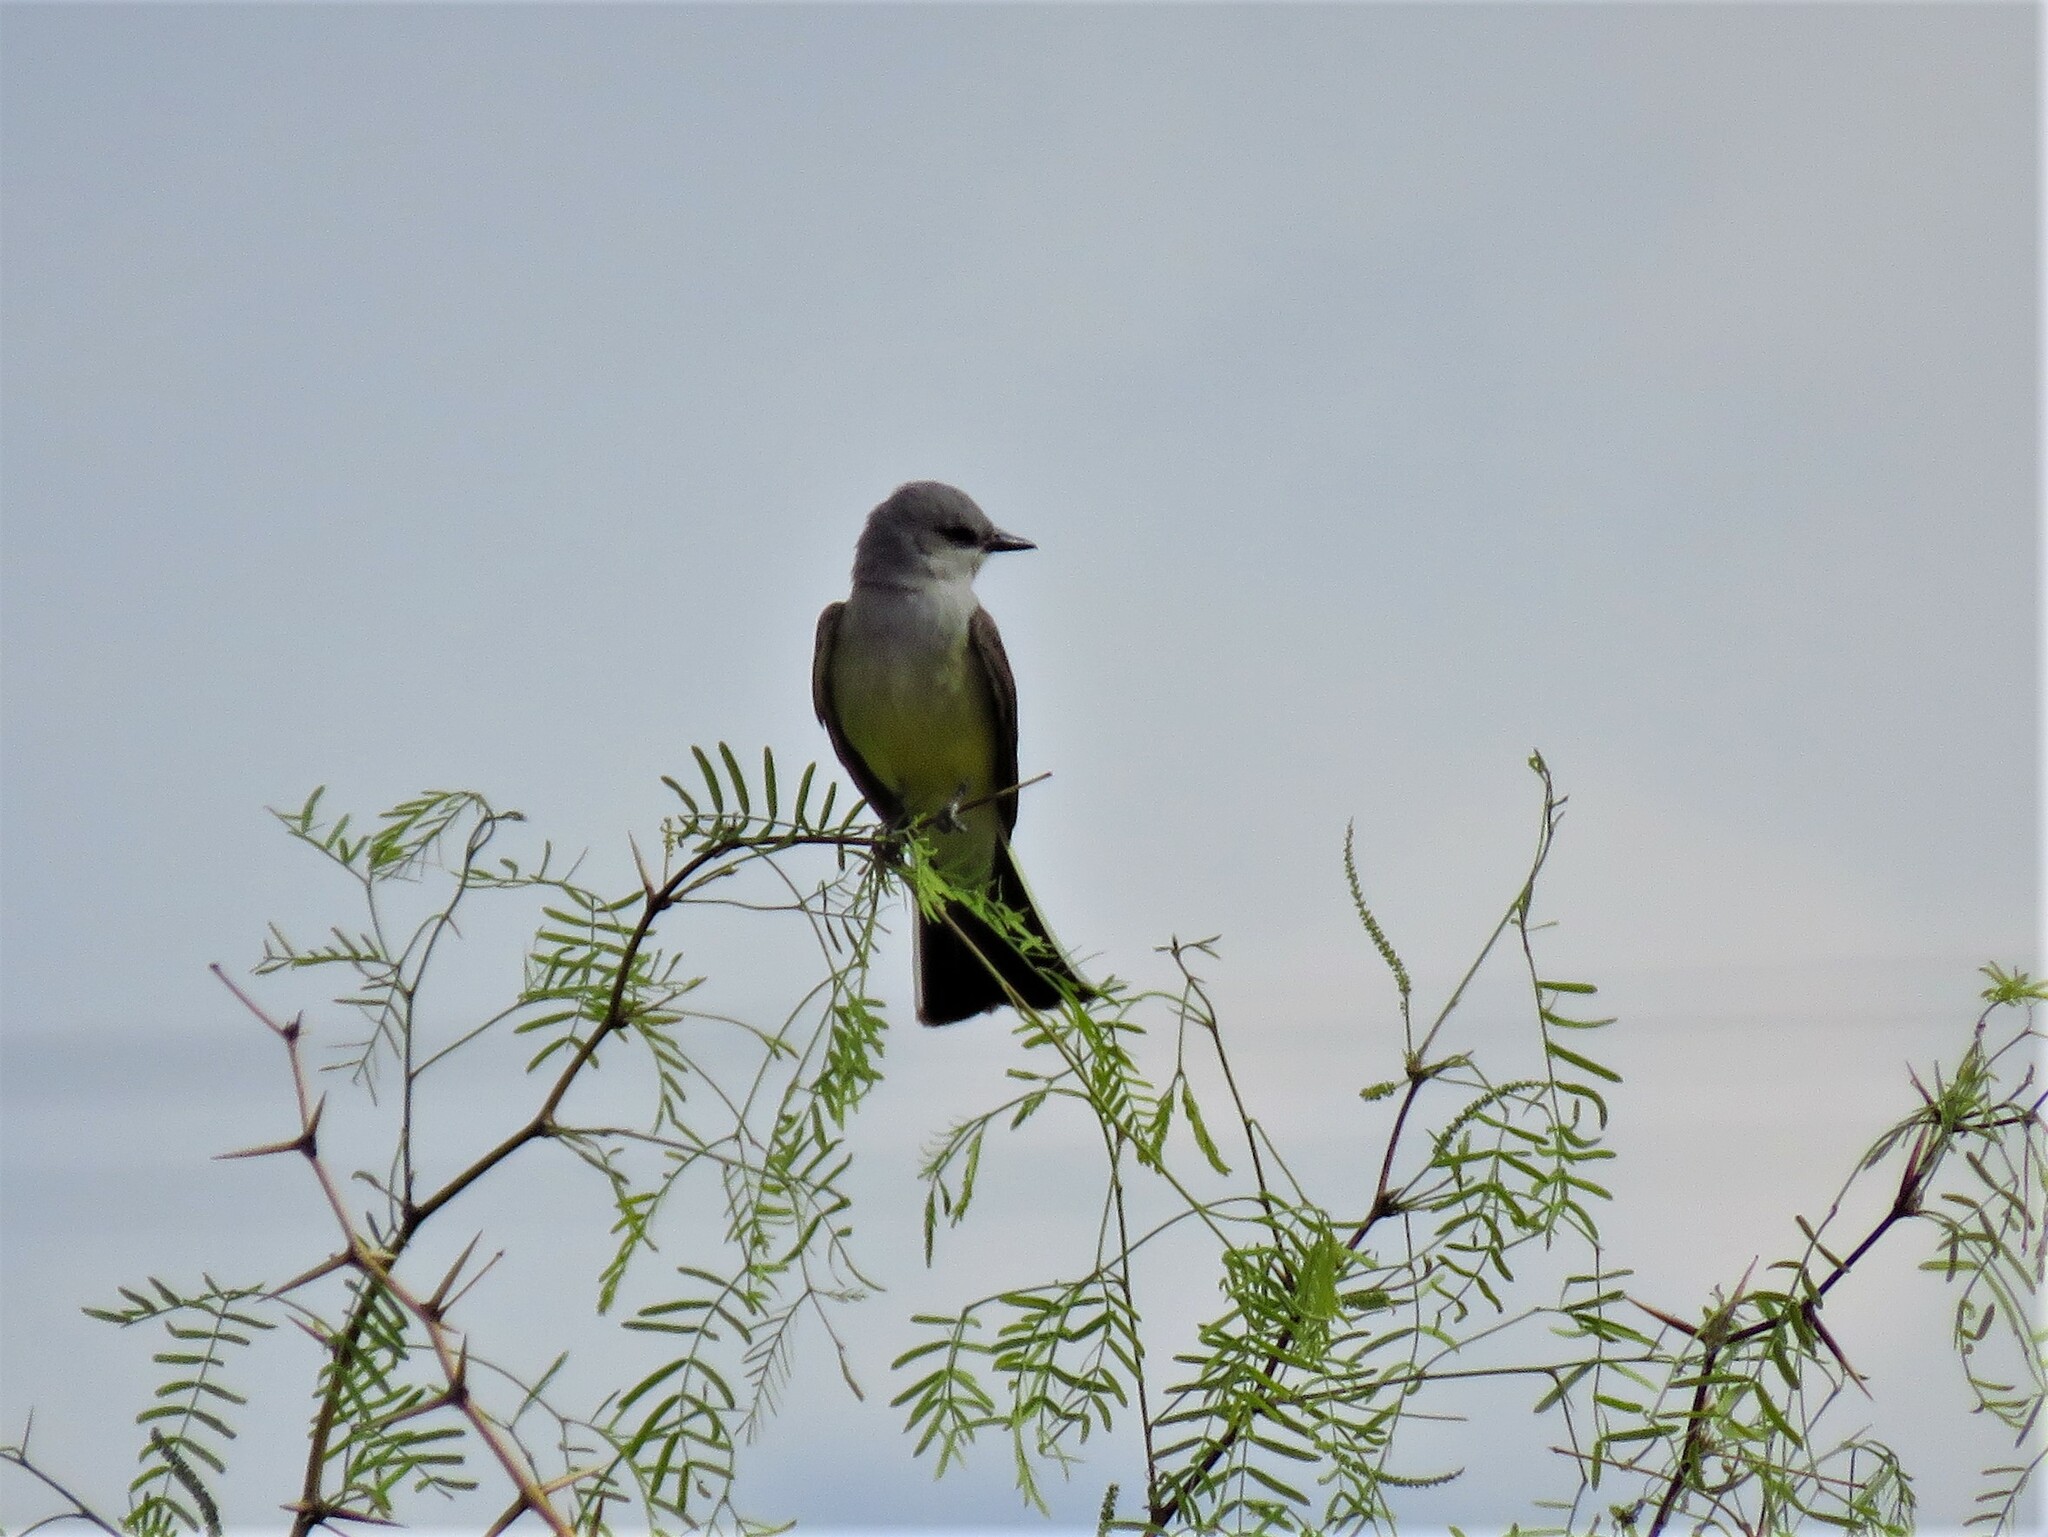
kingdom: Animalia
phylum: Chordata
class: Aves
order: Passeriformes
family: Tyrannidae
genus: Tyrannus
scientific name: Tyrannus verticalis
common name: Western kingbird
